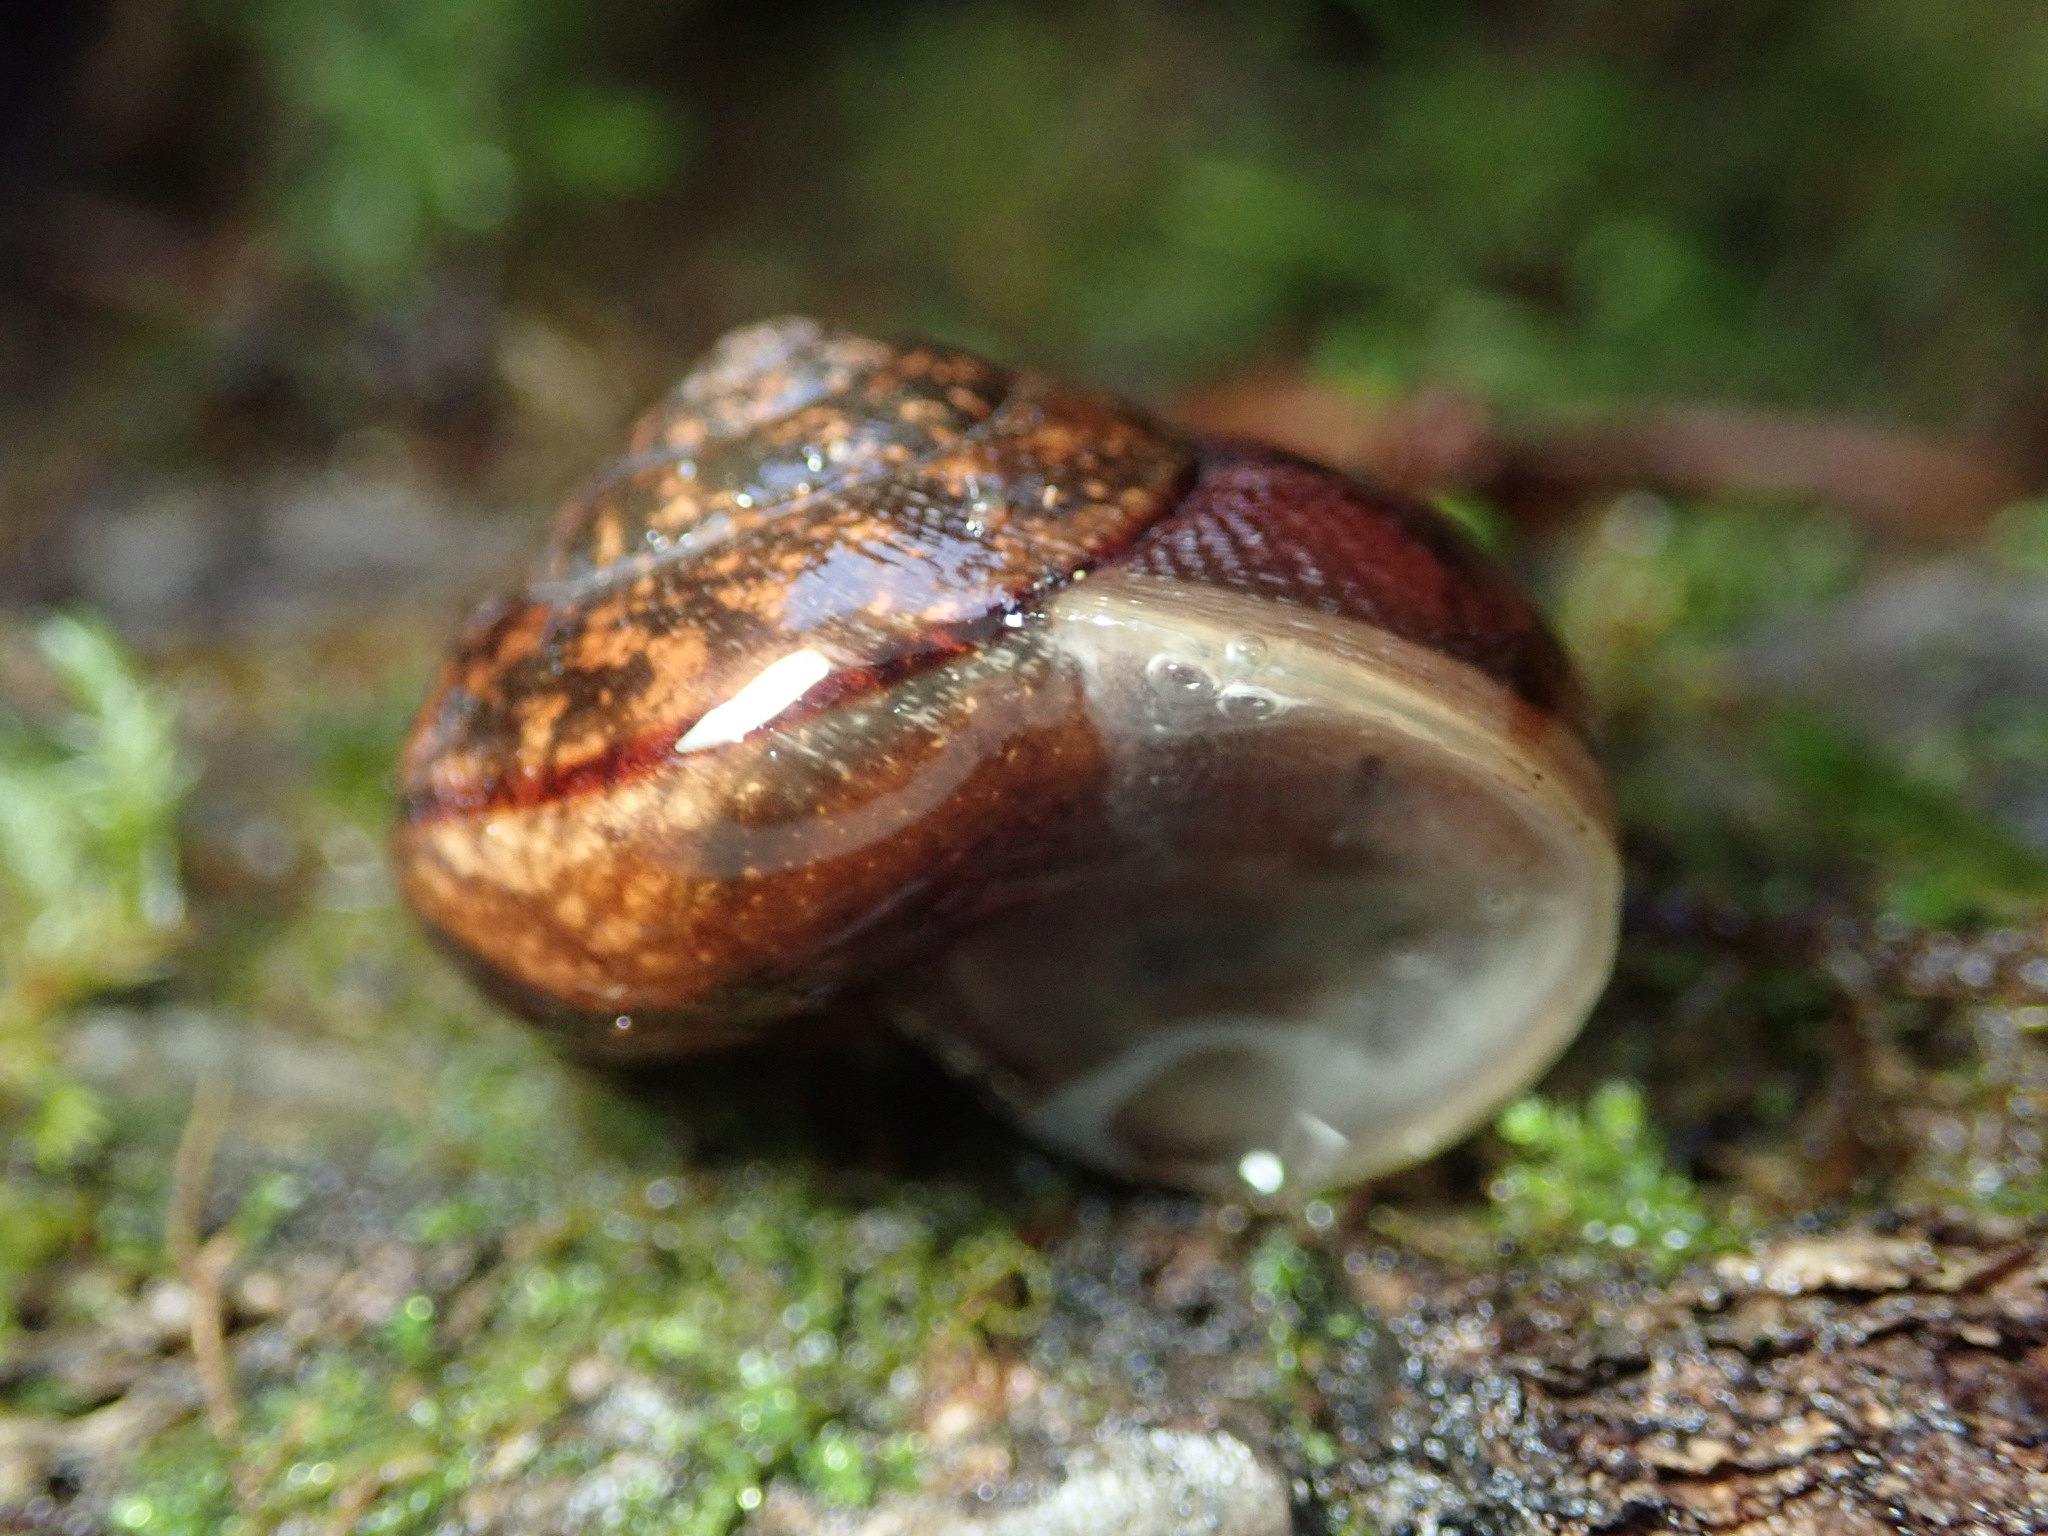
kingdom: Animalia
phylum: Mollusca
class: Gastropoda
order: Stylommatophora
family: Xanthonychidae
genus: Helminthoglypta
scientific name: Helminthoglypta nickliniana
